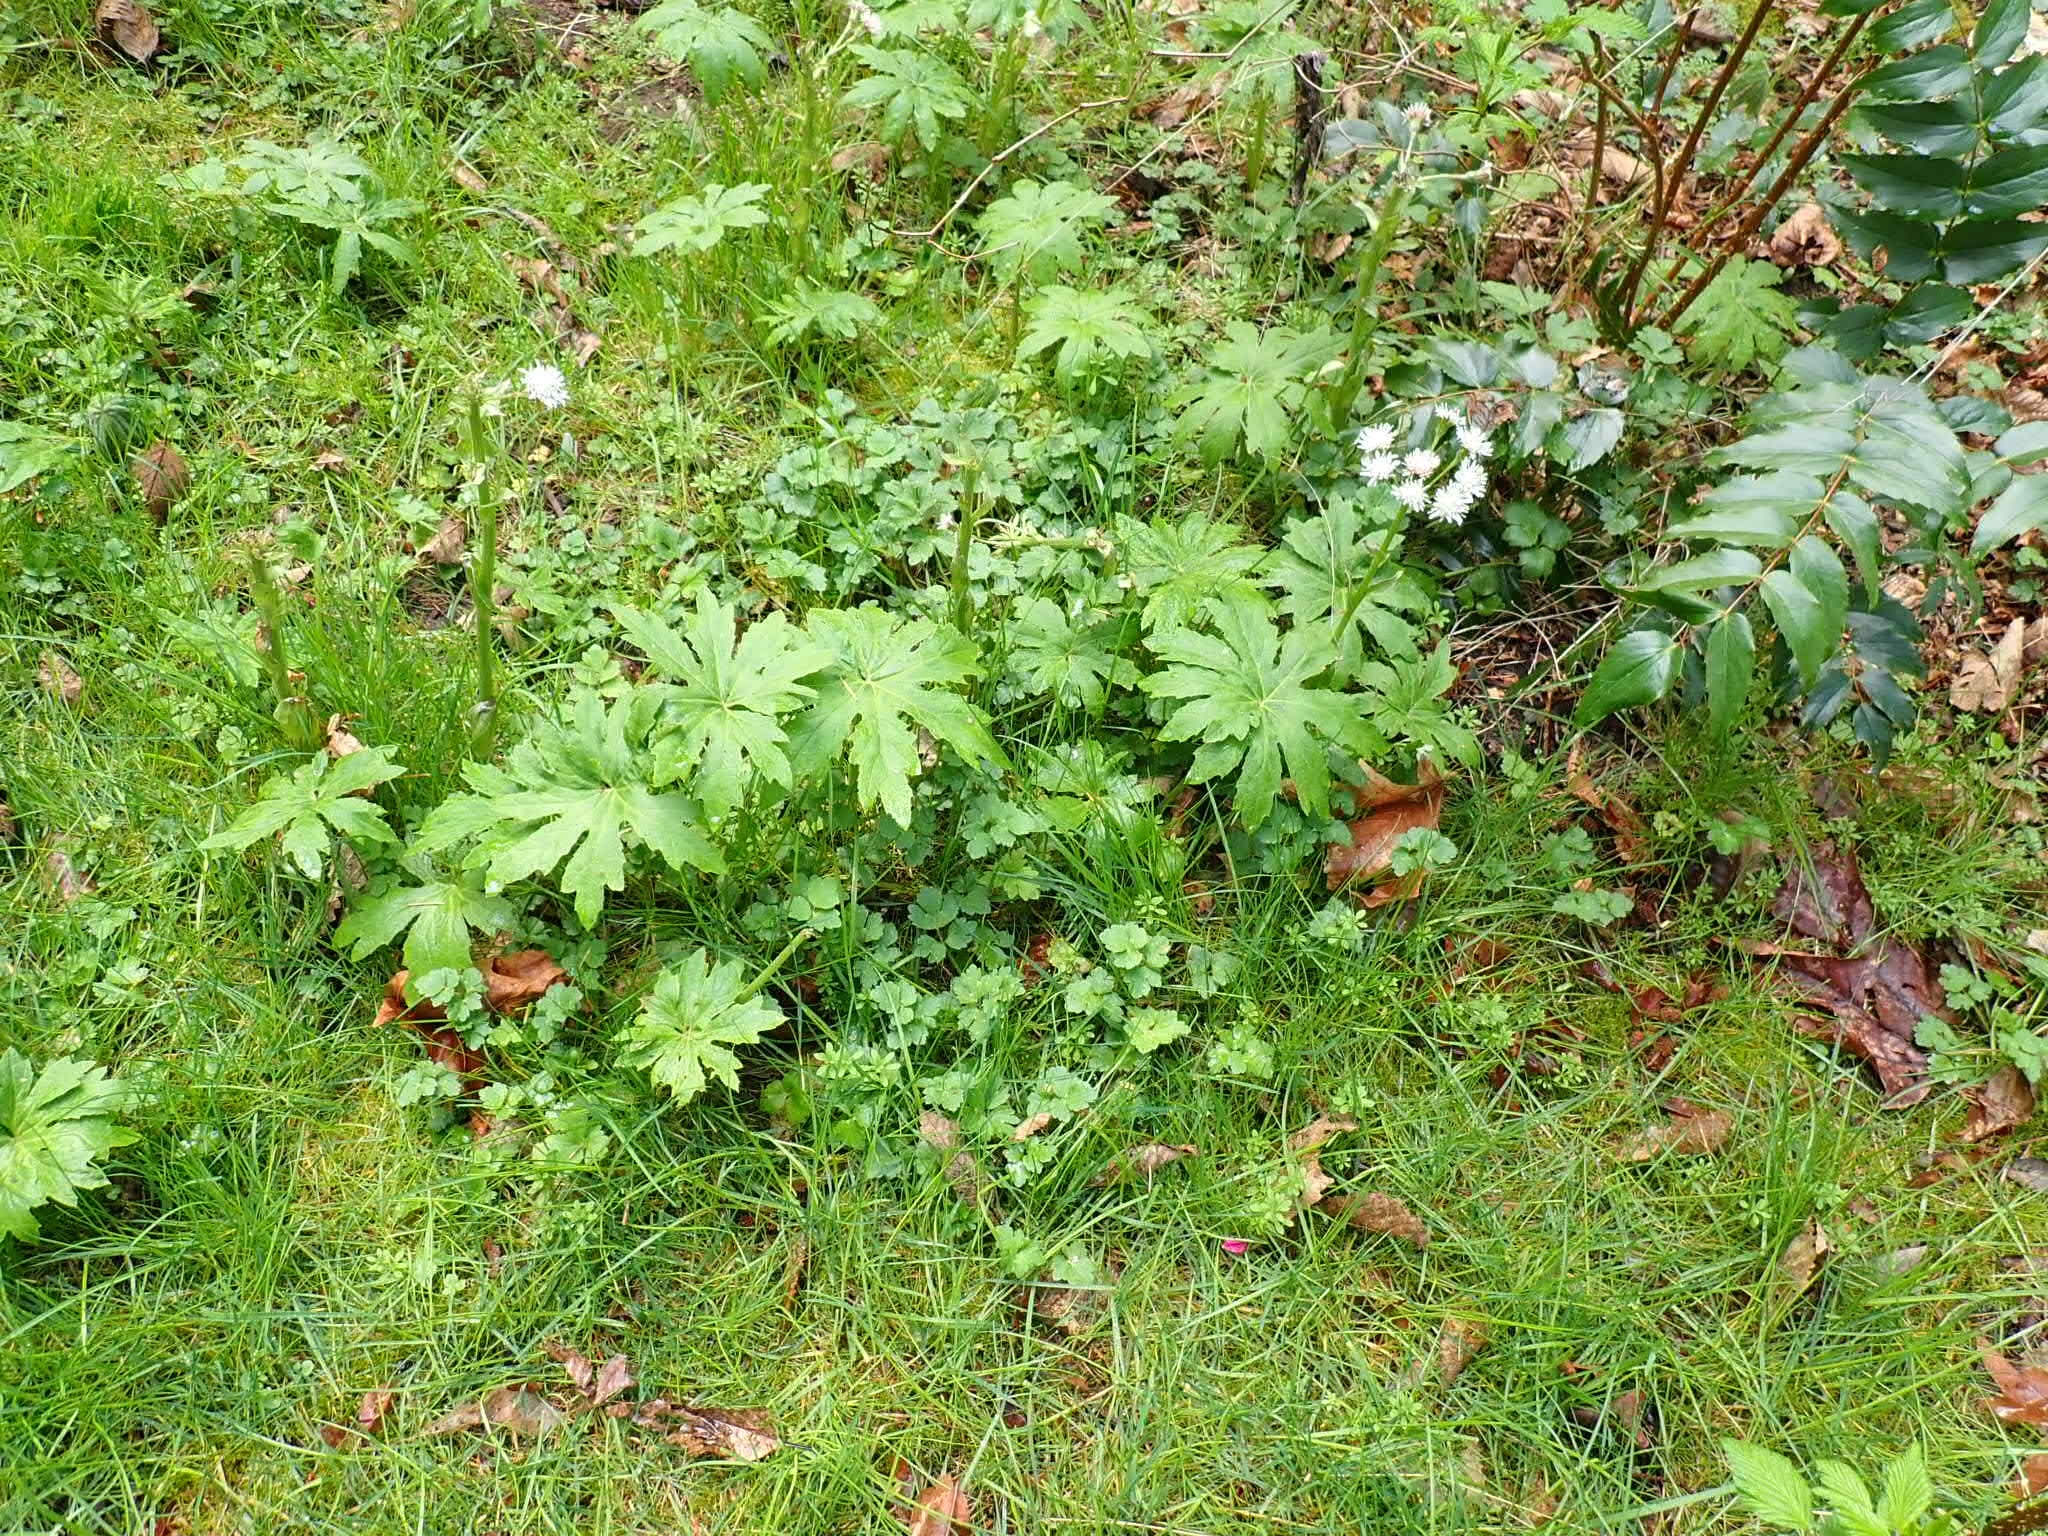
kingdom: Plantae
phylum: Tracheophyta
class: Magnoliopsida
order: Asterales
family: Asteraceae
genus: Petasites
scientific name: Petasites frigidus
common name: Arctic butterbur
